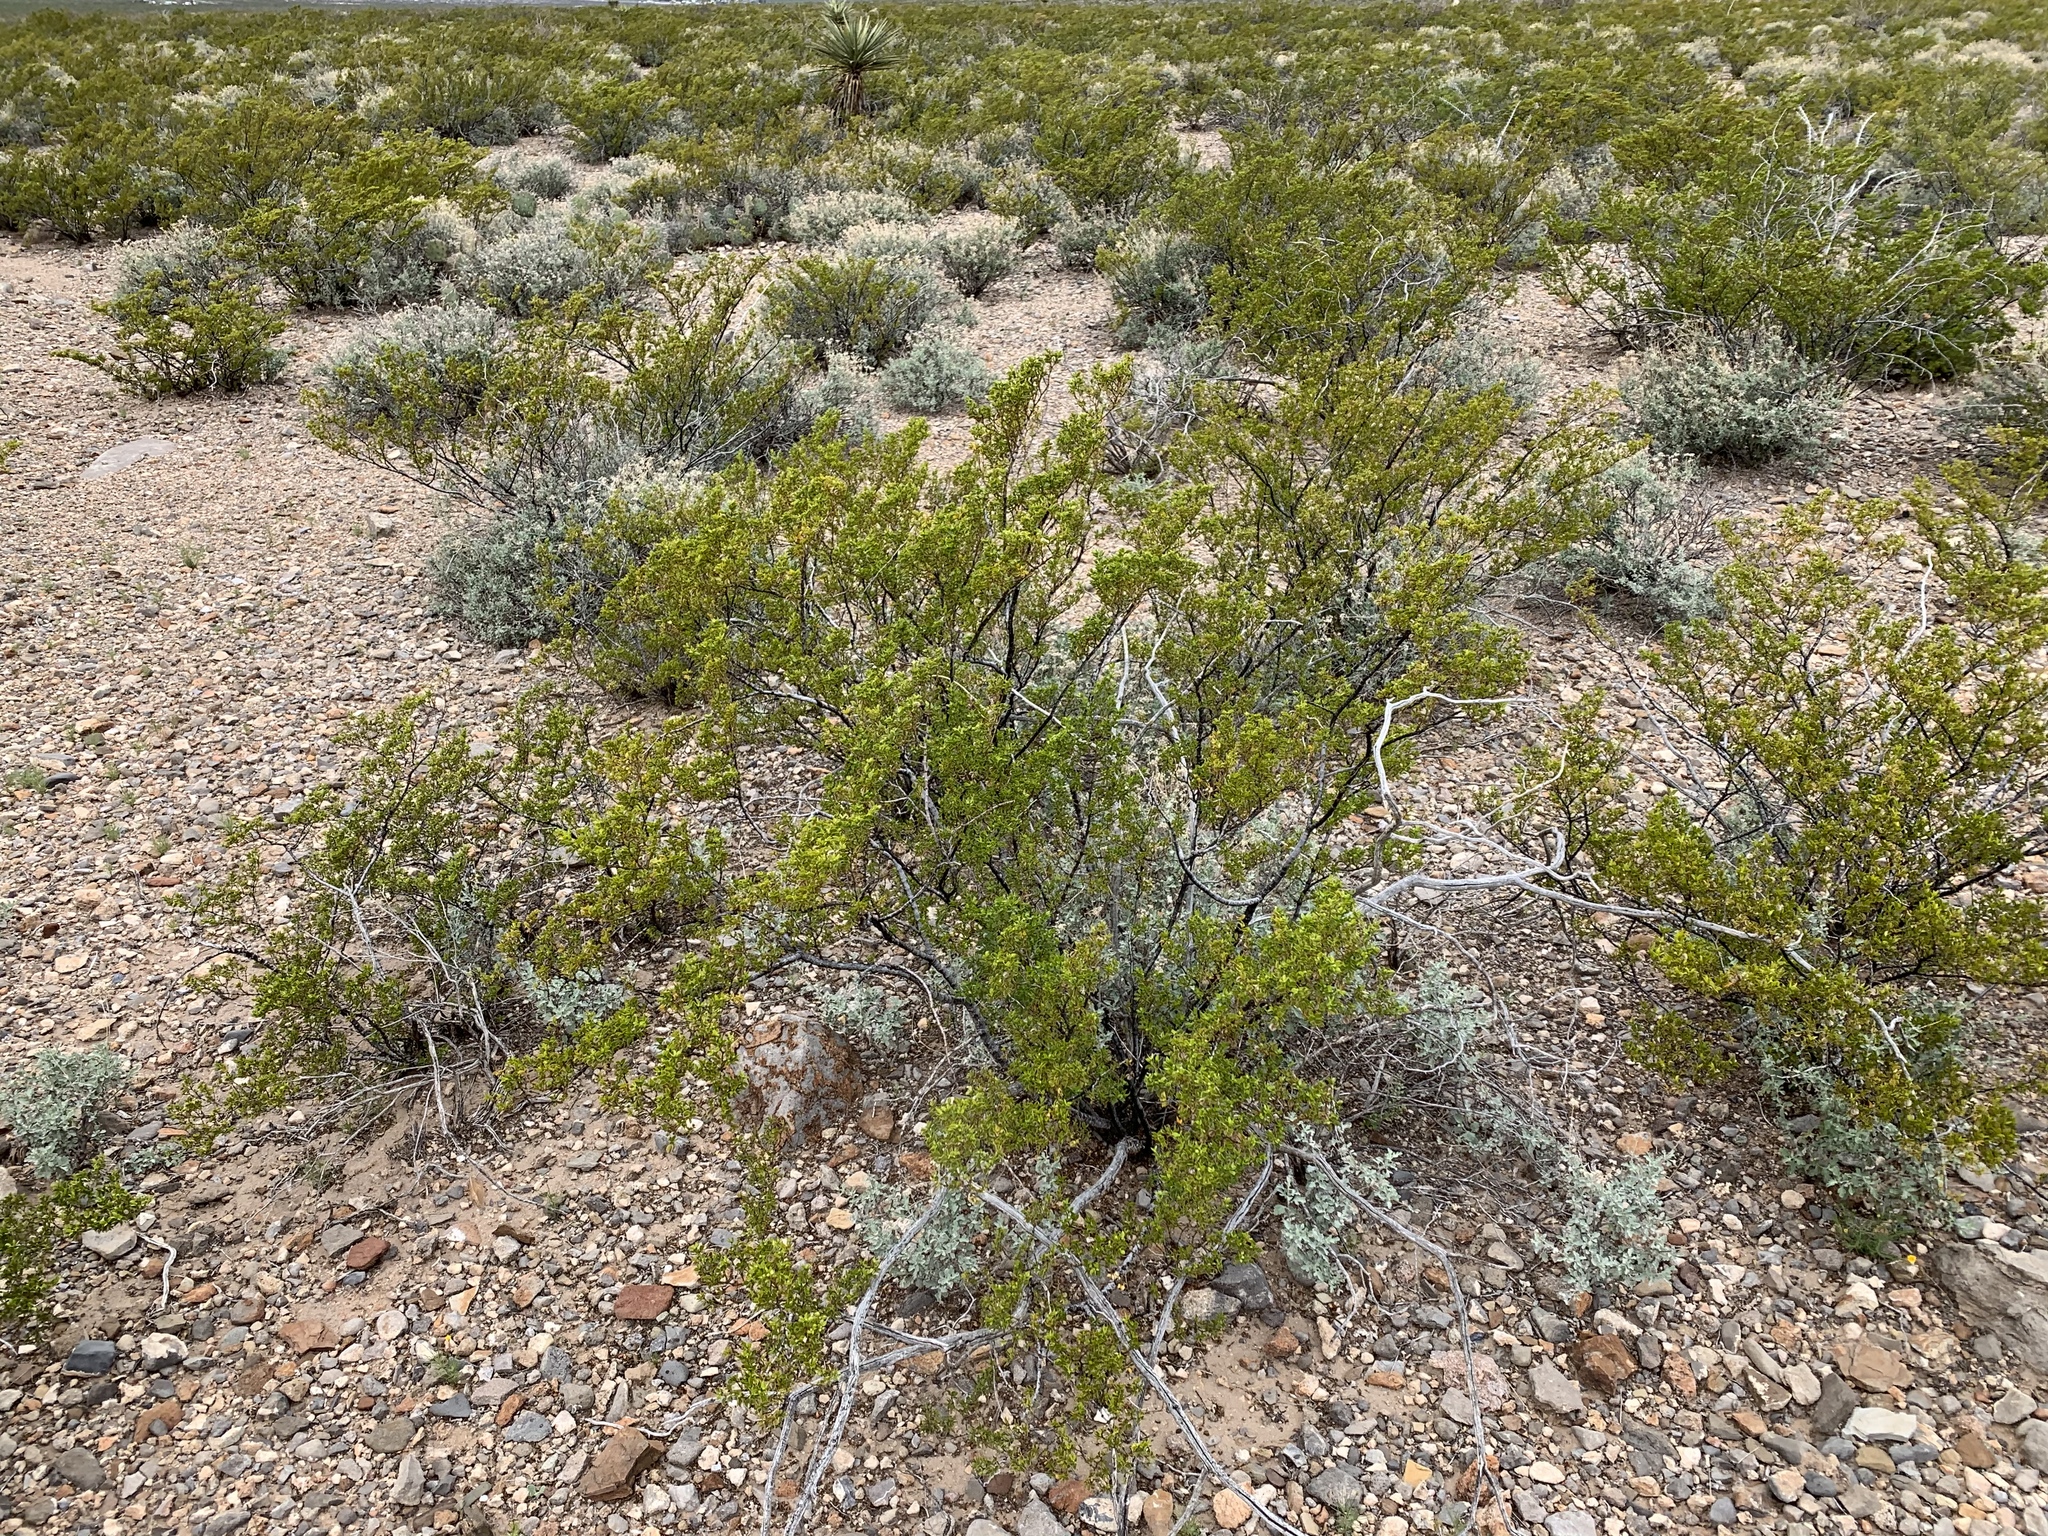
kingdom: Plantae
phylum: Tracheophyta
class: Magnoliopsida
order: Zygophyllales
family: Zygophyllaceae
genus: Larrea
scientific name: Larrea tridentata
